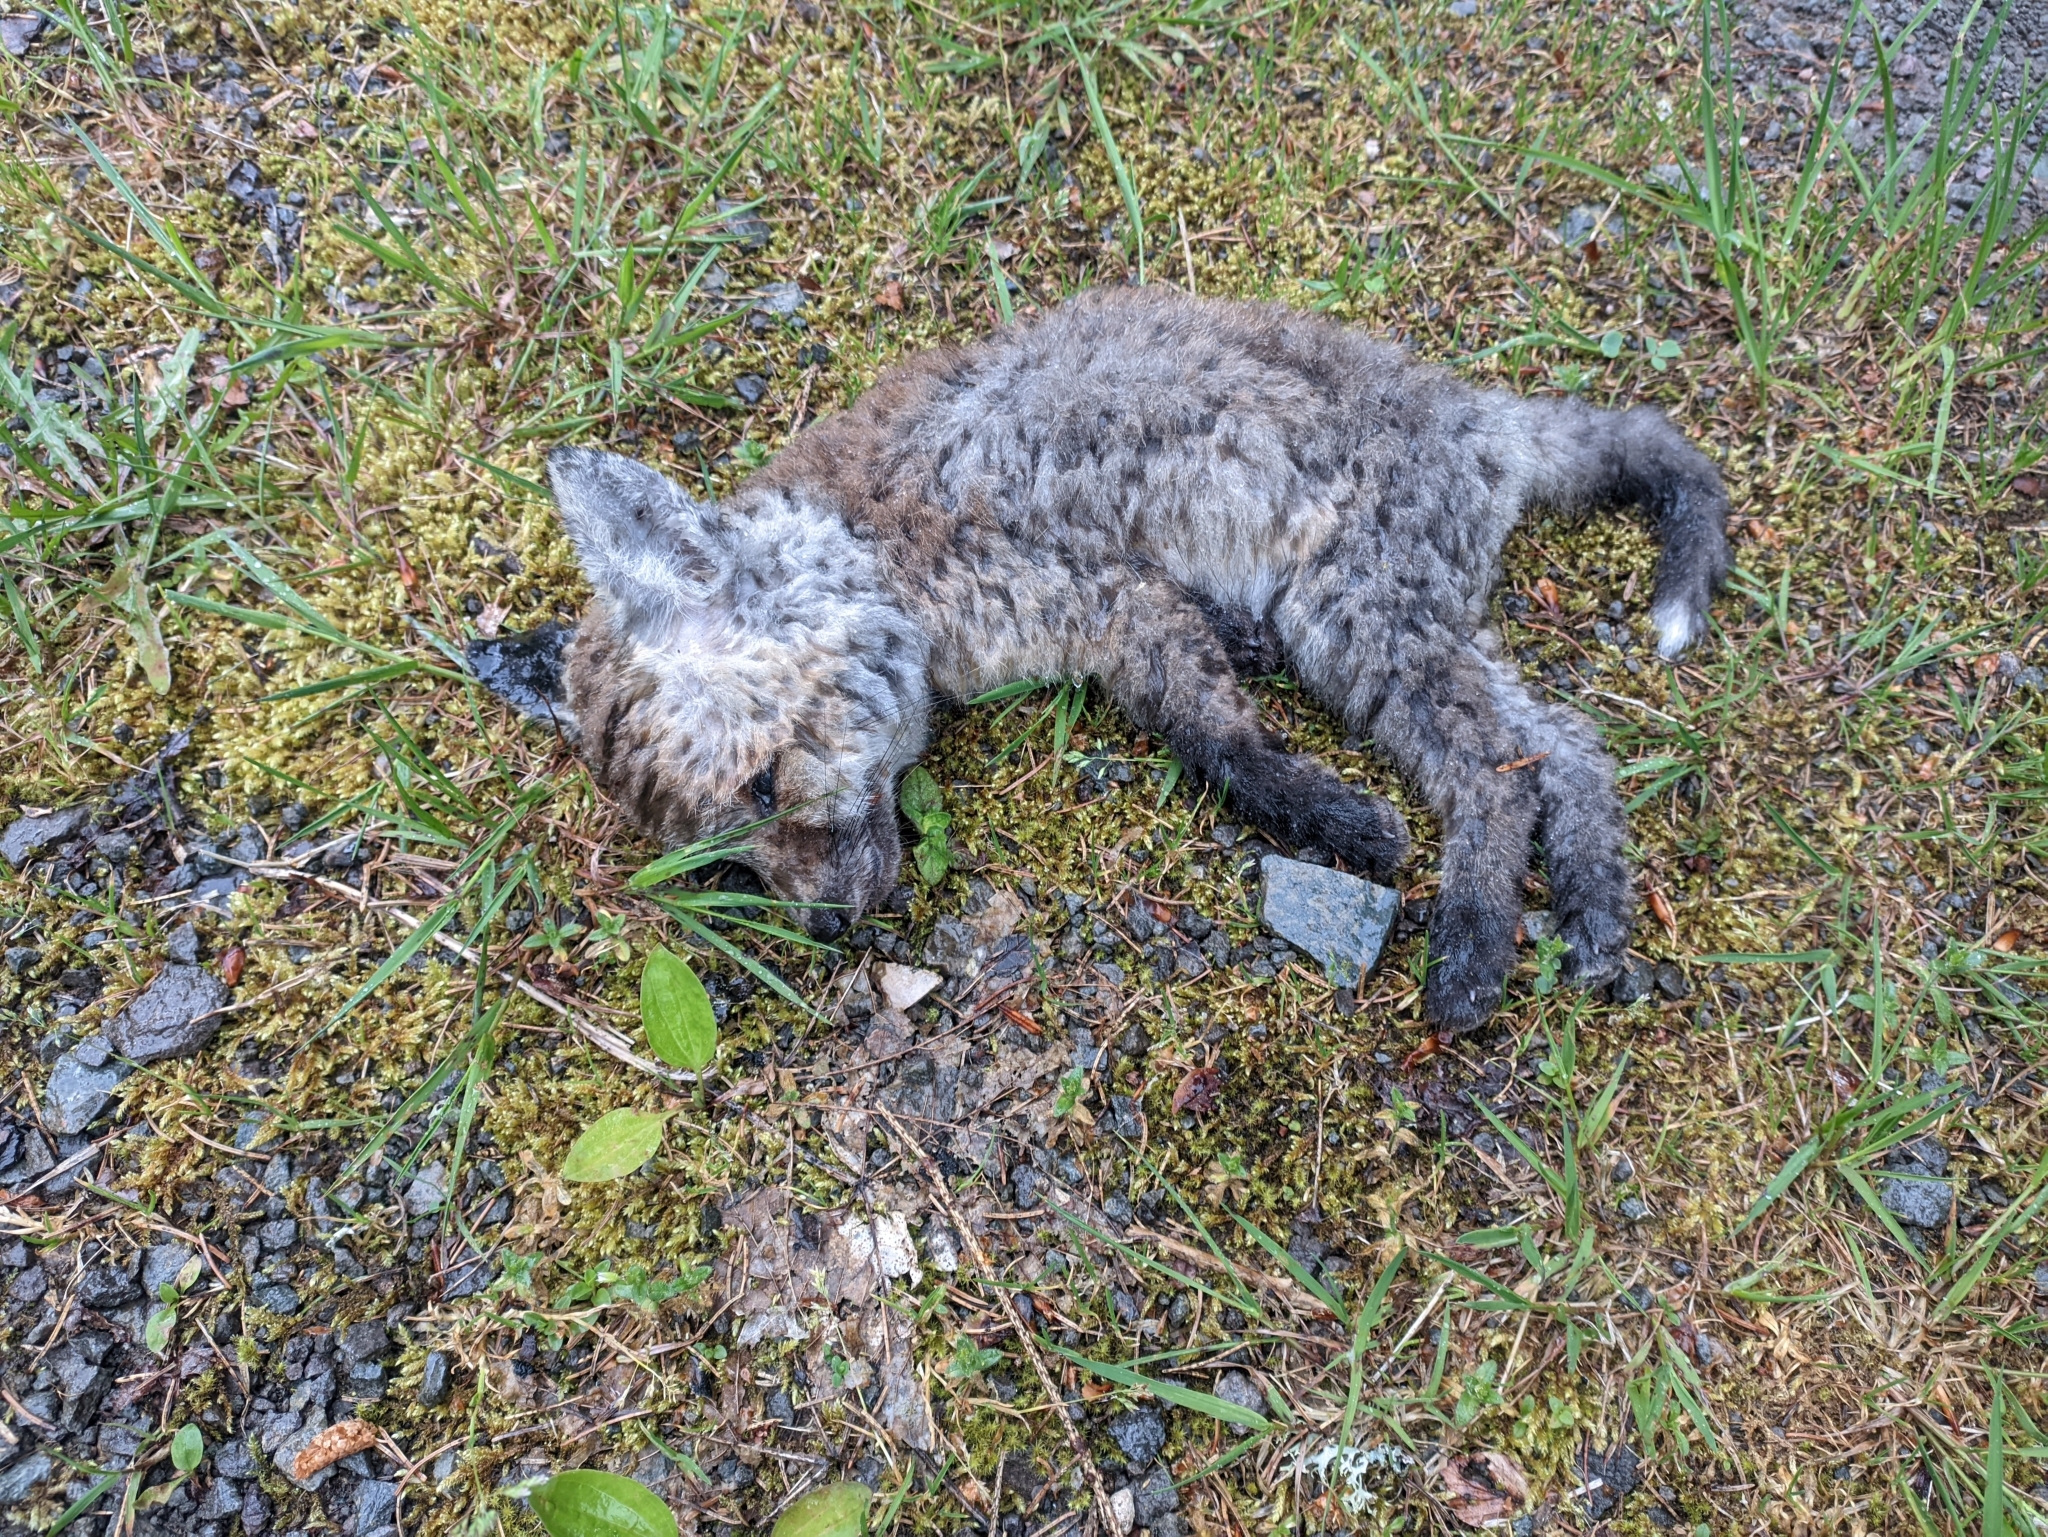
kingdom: Animalia
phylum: Chordata
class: Mammalia
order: Carnivora
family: Canidae
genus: Vulpes
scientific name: Vulpes vulpes
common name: Red fox
